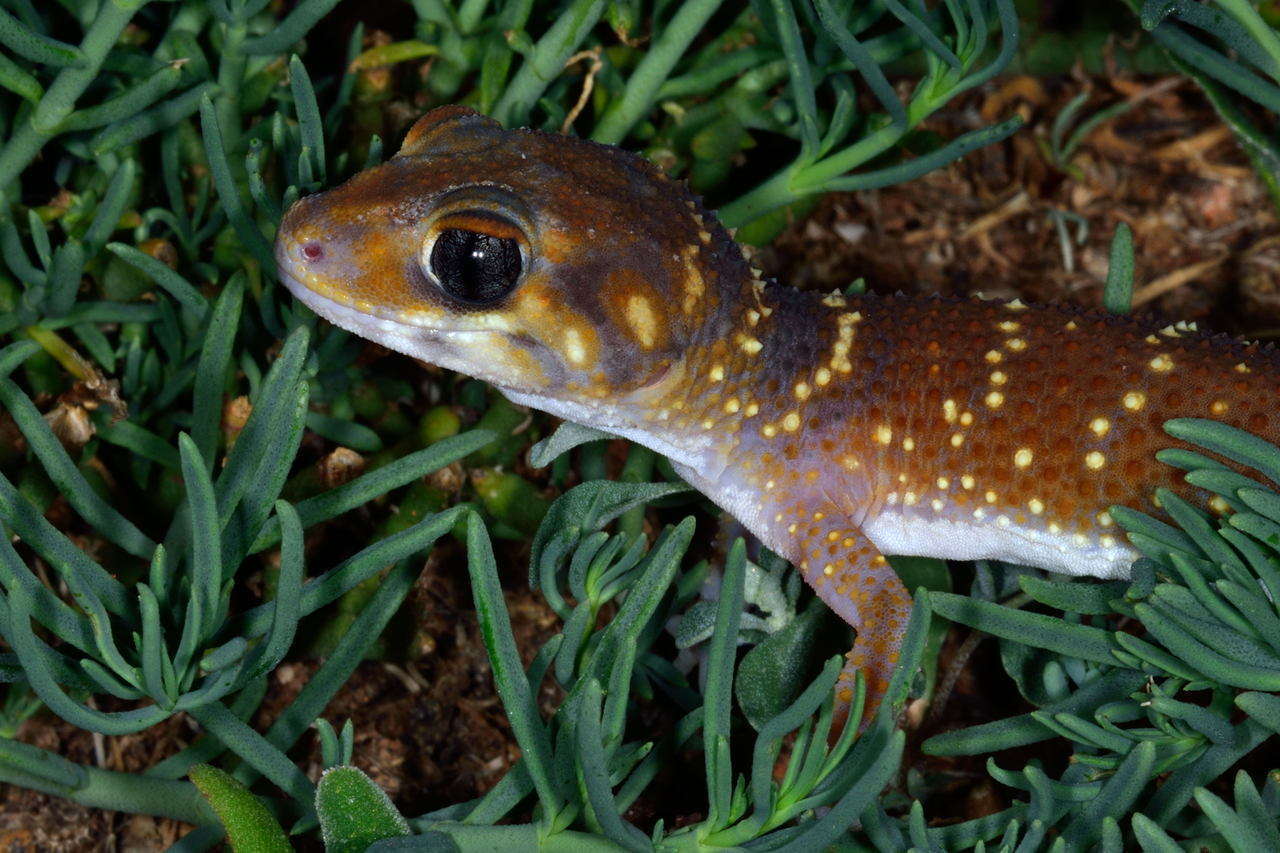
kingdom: Animalia
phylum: Chordata
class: Squamata
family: Carphodactylidae
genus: Underwoodisaurus
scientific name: Underwoodisaurus milii
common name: Barking gecko
